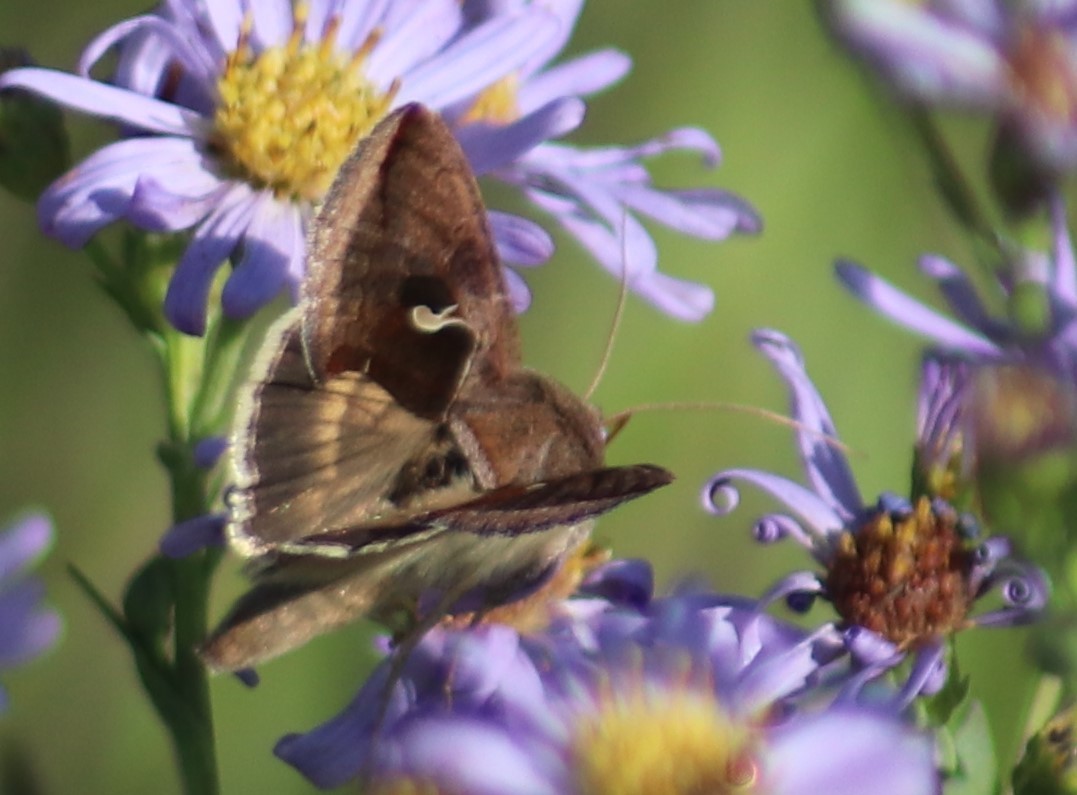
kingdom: Animalia
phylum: Arthropoda
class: Insecta
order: Lepidoptera
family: Noctuidae
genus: Anagrapha
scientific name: Anagrapha falcifera
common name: Celery looper
